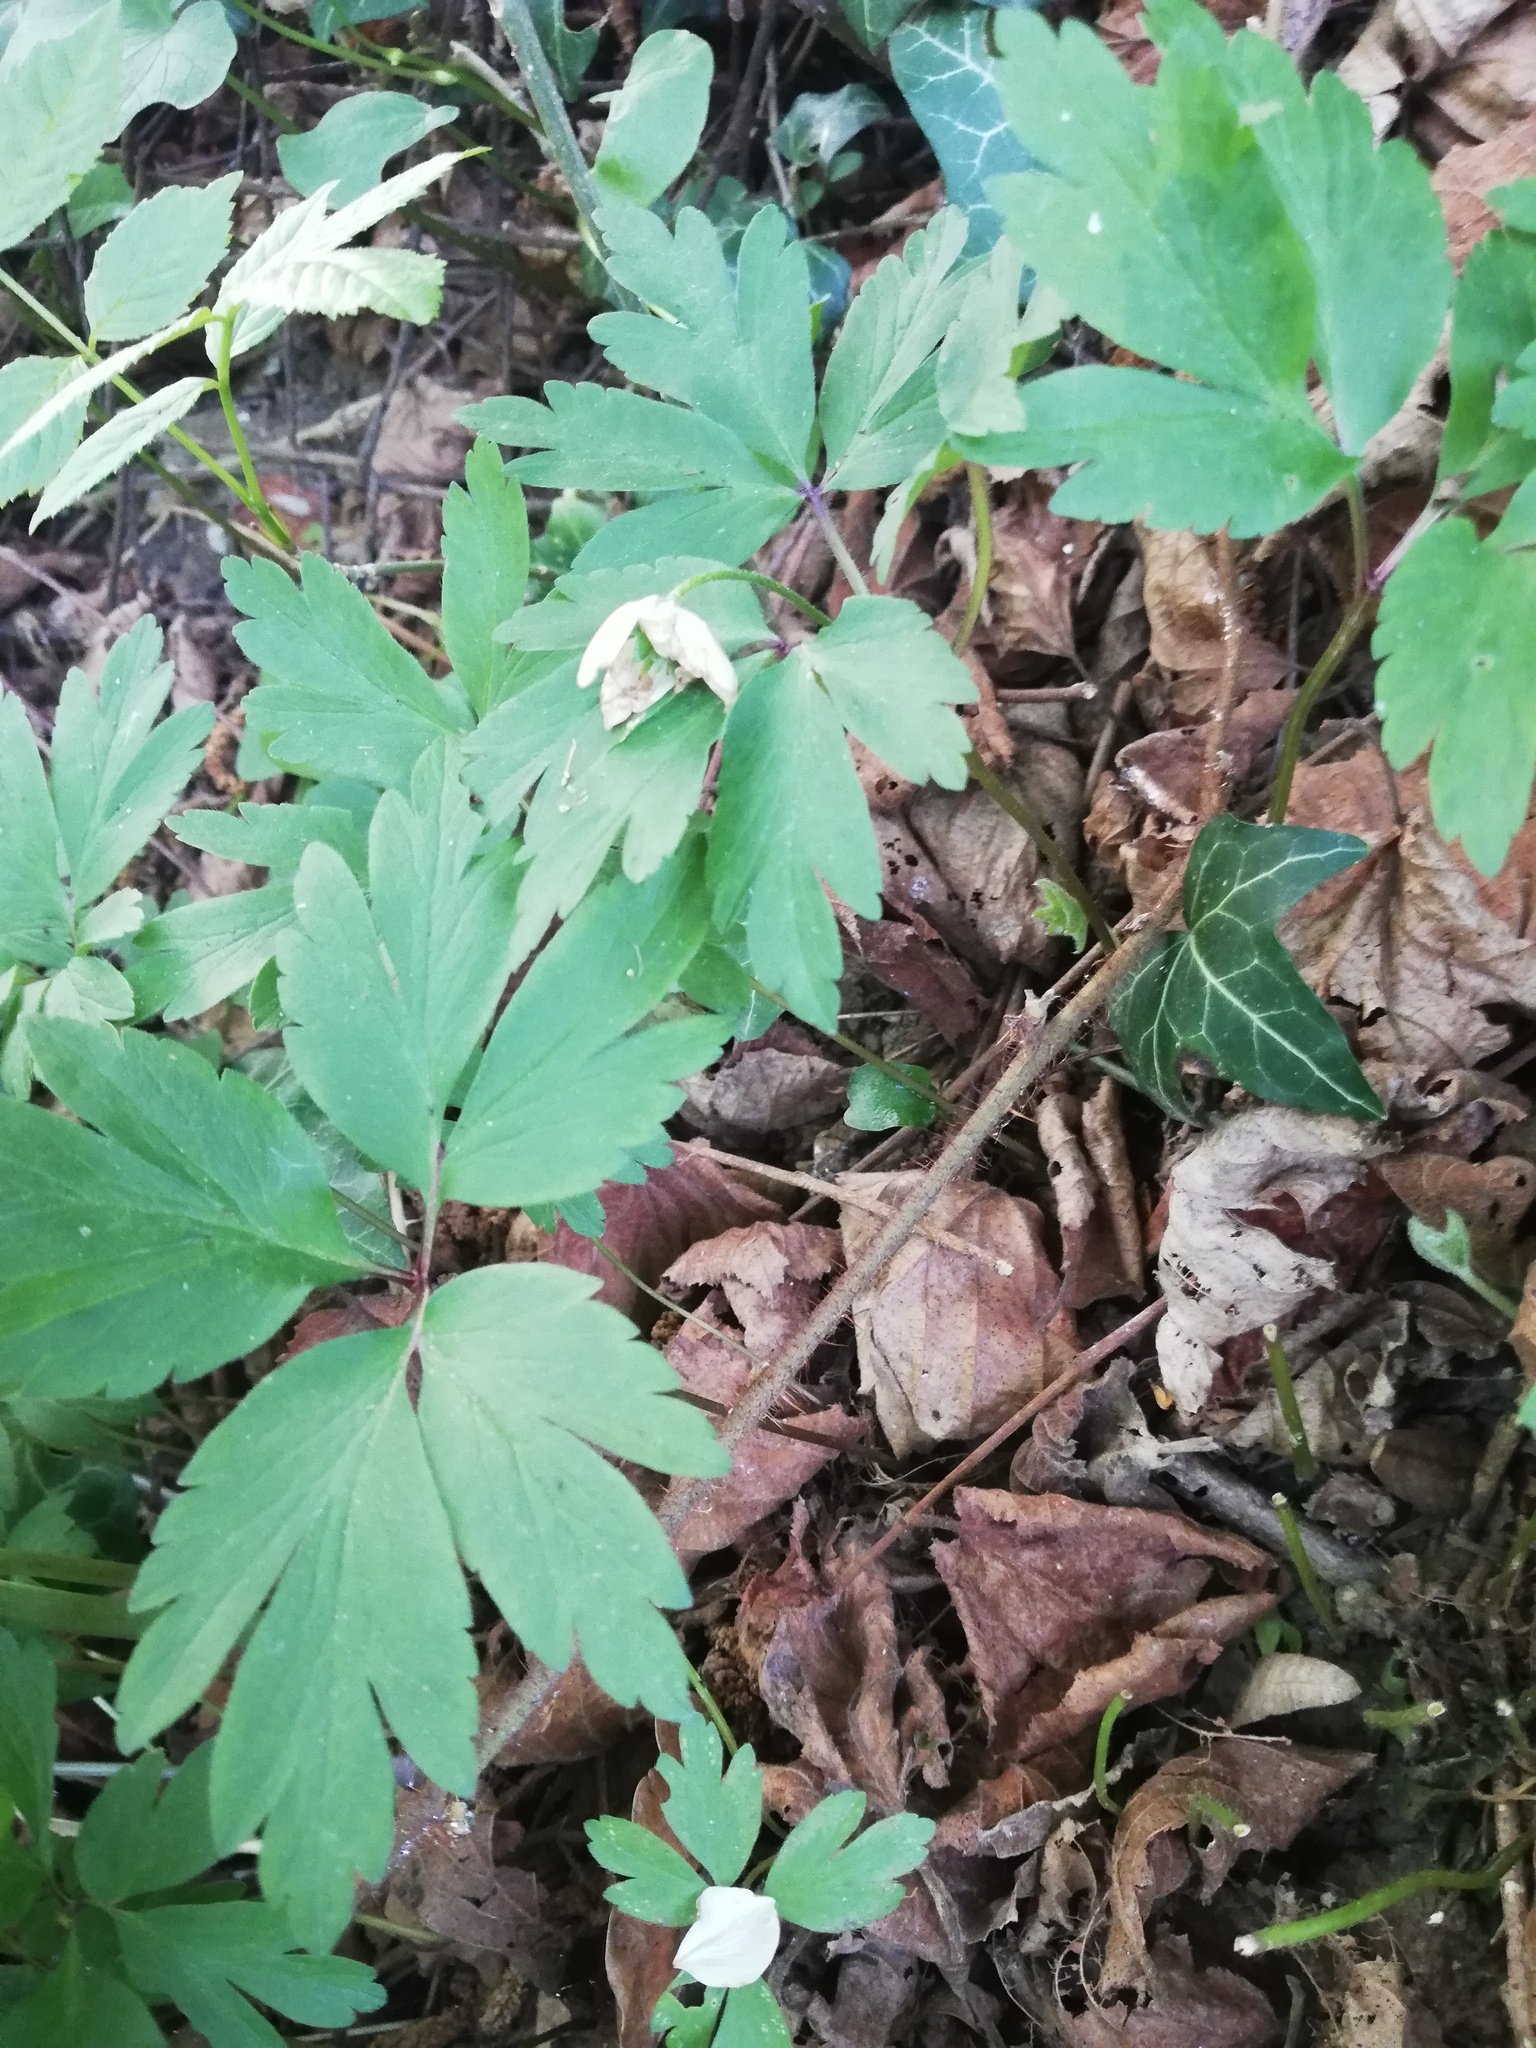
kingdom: Plantae
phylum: Tracheophyta
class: Magnoliopsida
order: Ranunculales
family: Ranunculaceae
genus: Anemone
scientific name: Anemone nemorosa
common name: Wood anemone
